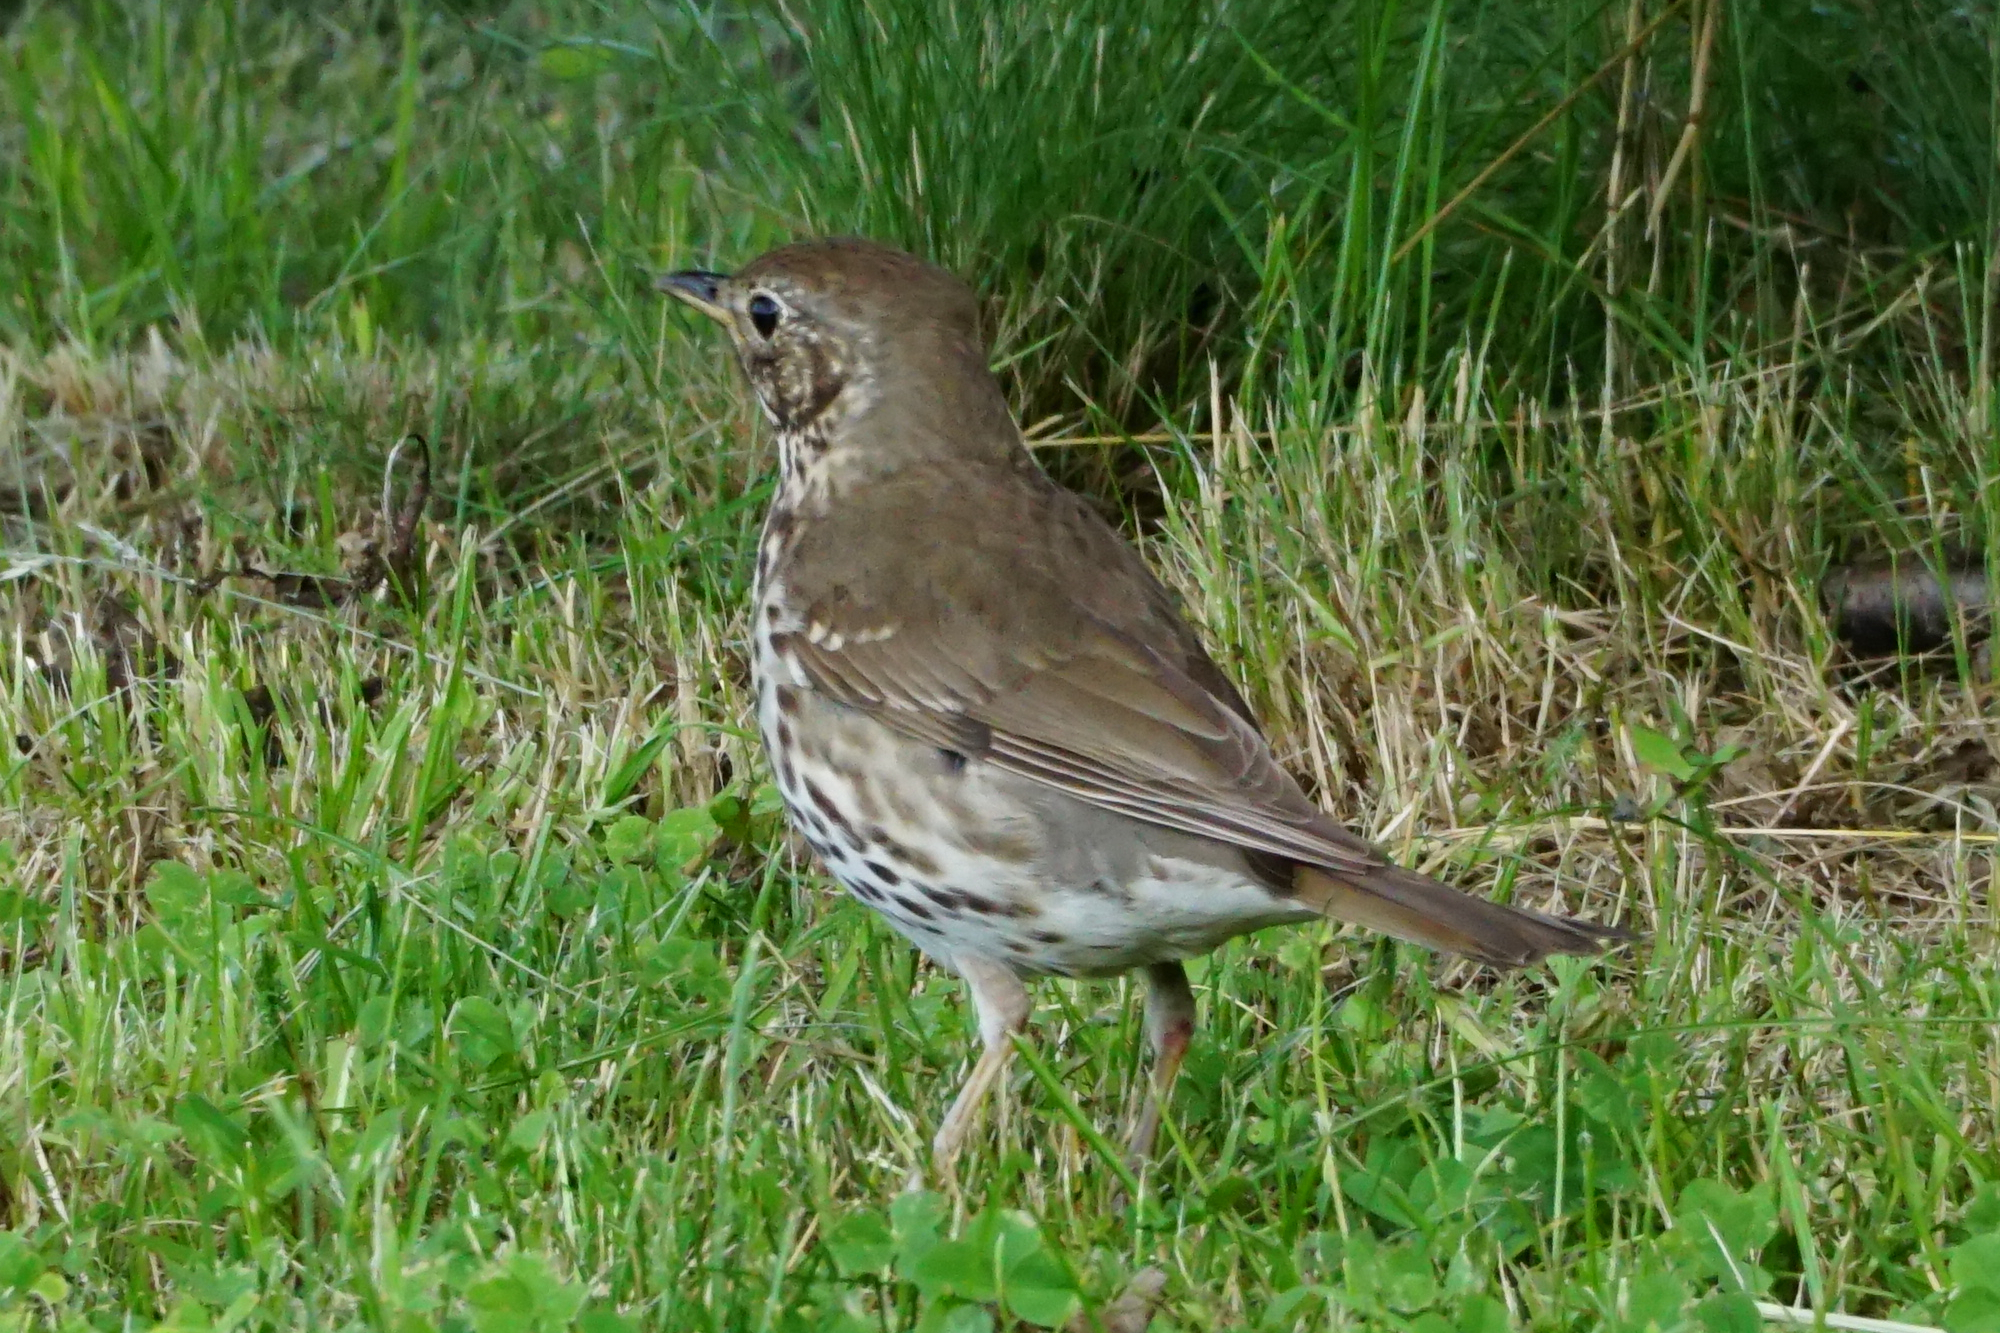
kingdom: Animalia
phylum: Chordata
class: Aves
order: Passeriformes
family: Turdidae
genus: Turdus
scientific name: Turdus philomelos
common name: Song thrush
